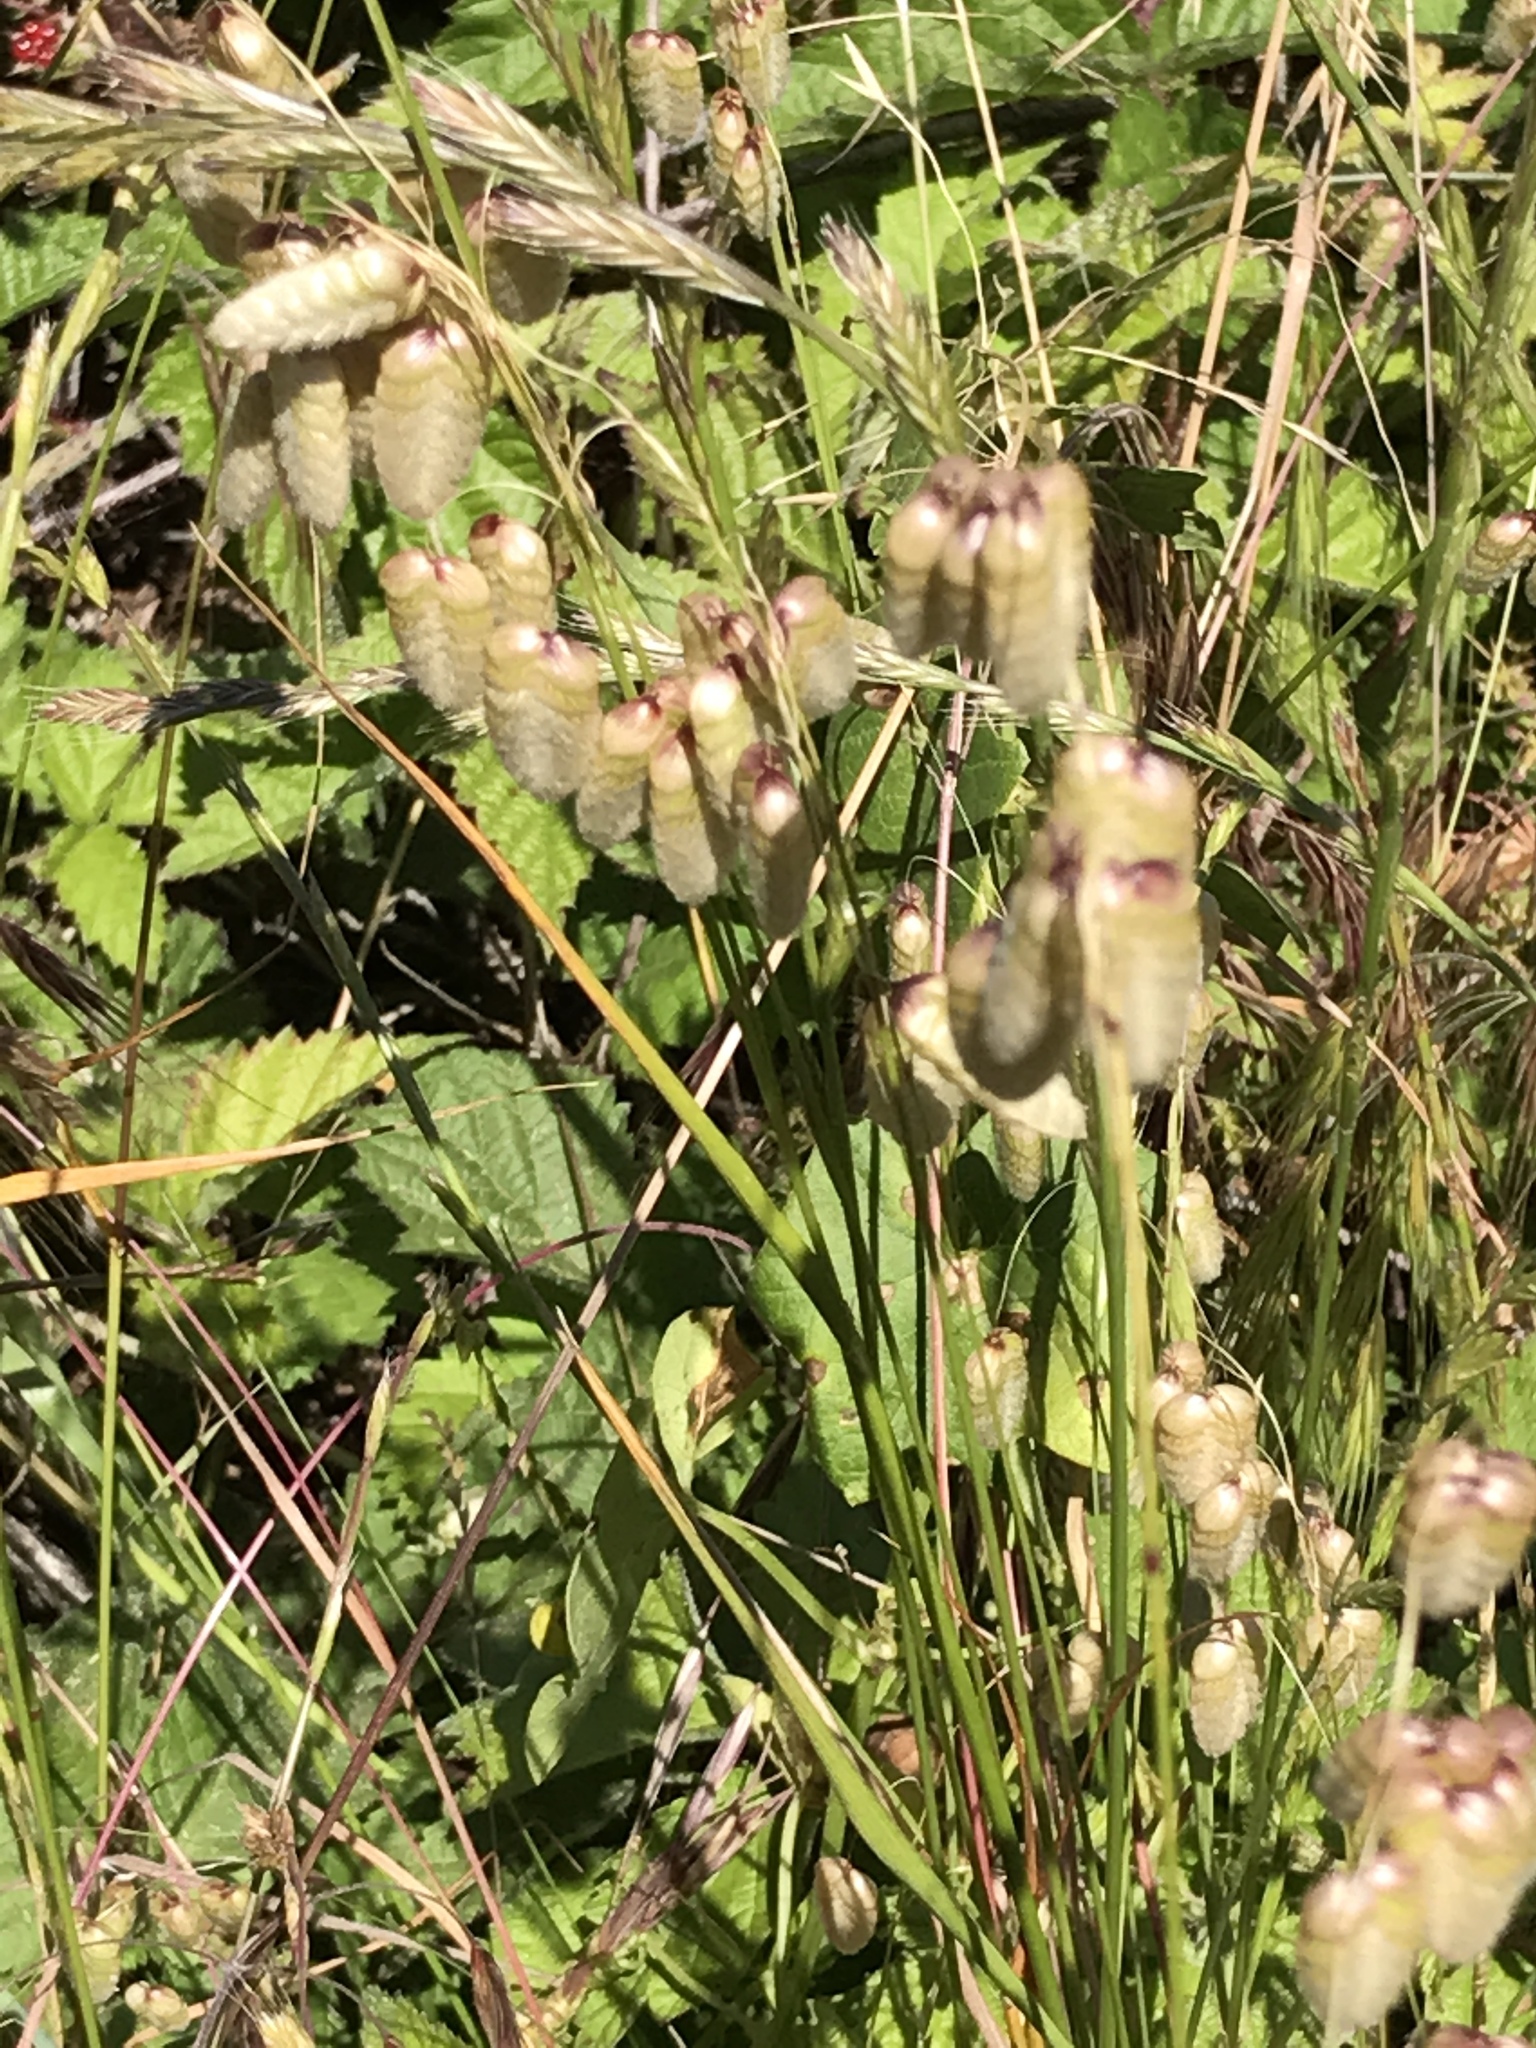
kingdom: Plantae
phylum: Tracheophyta
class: Liliopsida
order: Poales
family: Poaceae
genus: Briza
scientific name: Briza maxima
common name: Big quakinggrass
